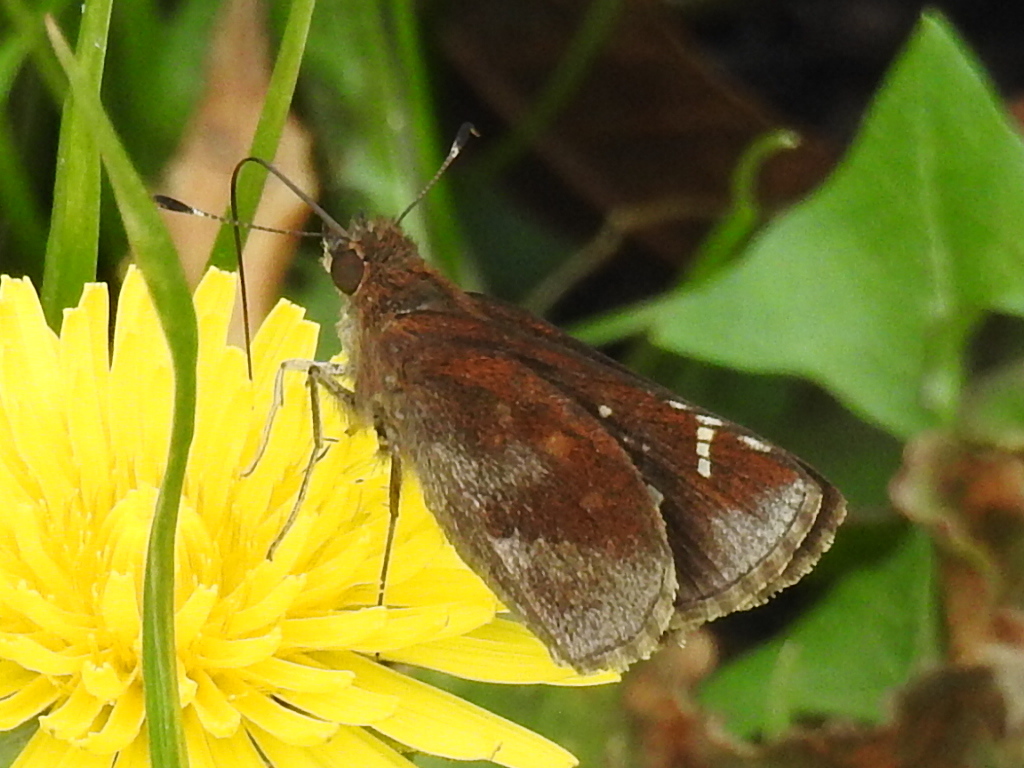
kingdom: Animalia
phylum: Arthropoda
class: Insecta
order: Lepidoptera
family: Hesperiidae
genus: Lerema
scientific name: Lerema accius
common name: Clouded skipper
